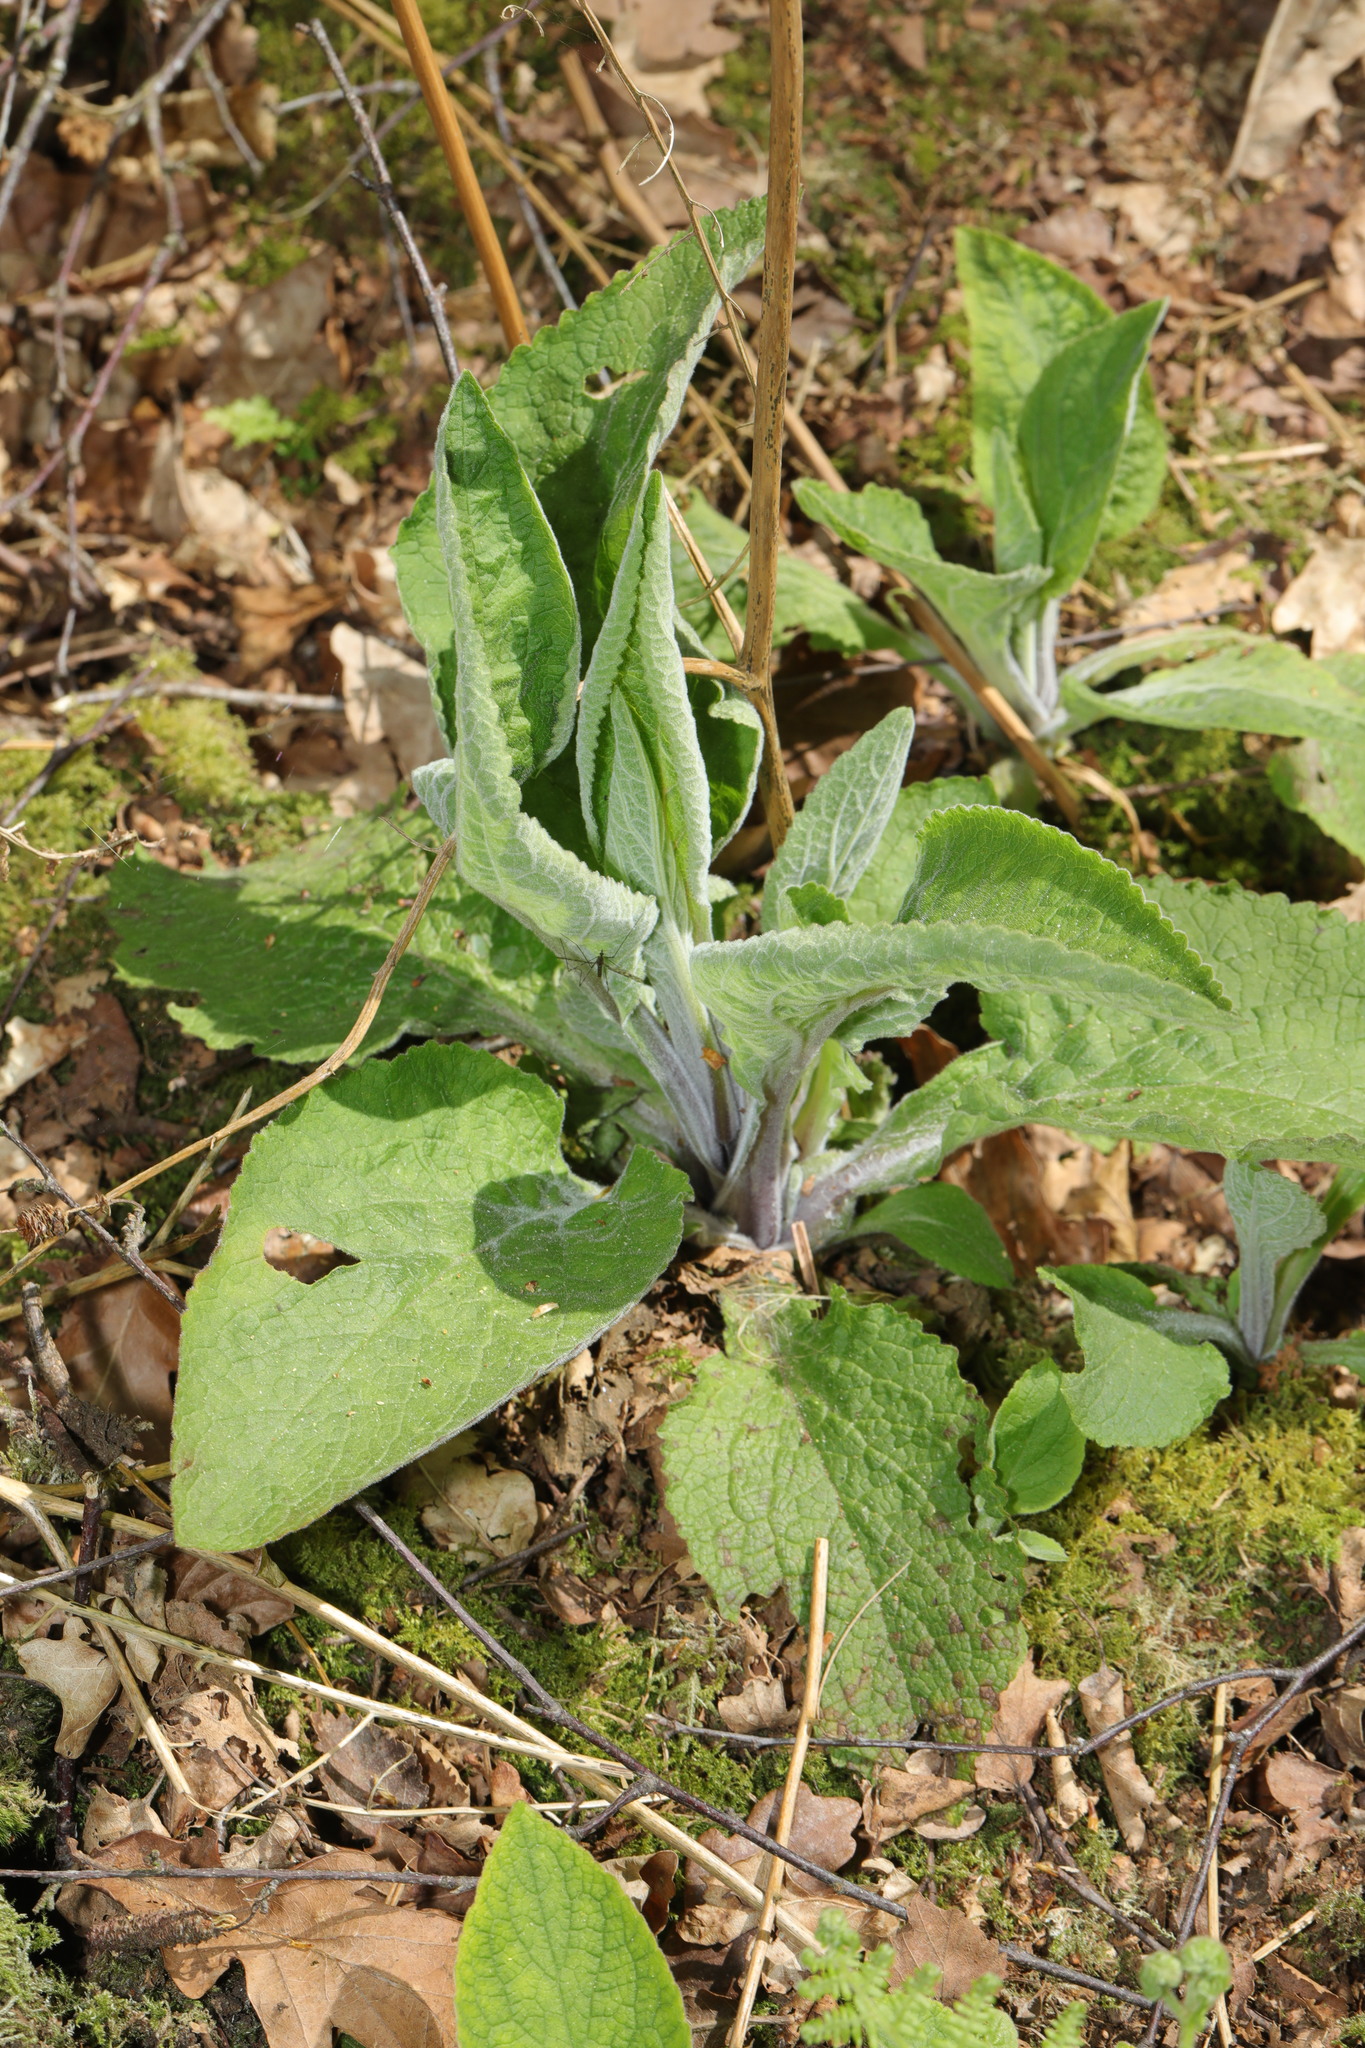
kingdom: Plantae
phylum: Tracheophyta
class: Magnoliopsida
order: Lamiales
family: Plantaginaceae
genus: Digitalis
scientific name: Digitalis purpurea
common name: Foxglove
